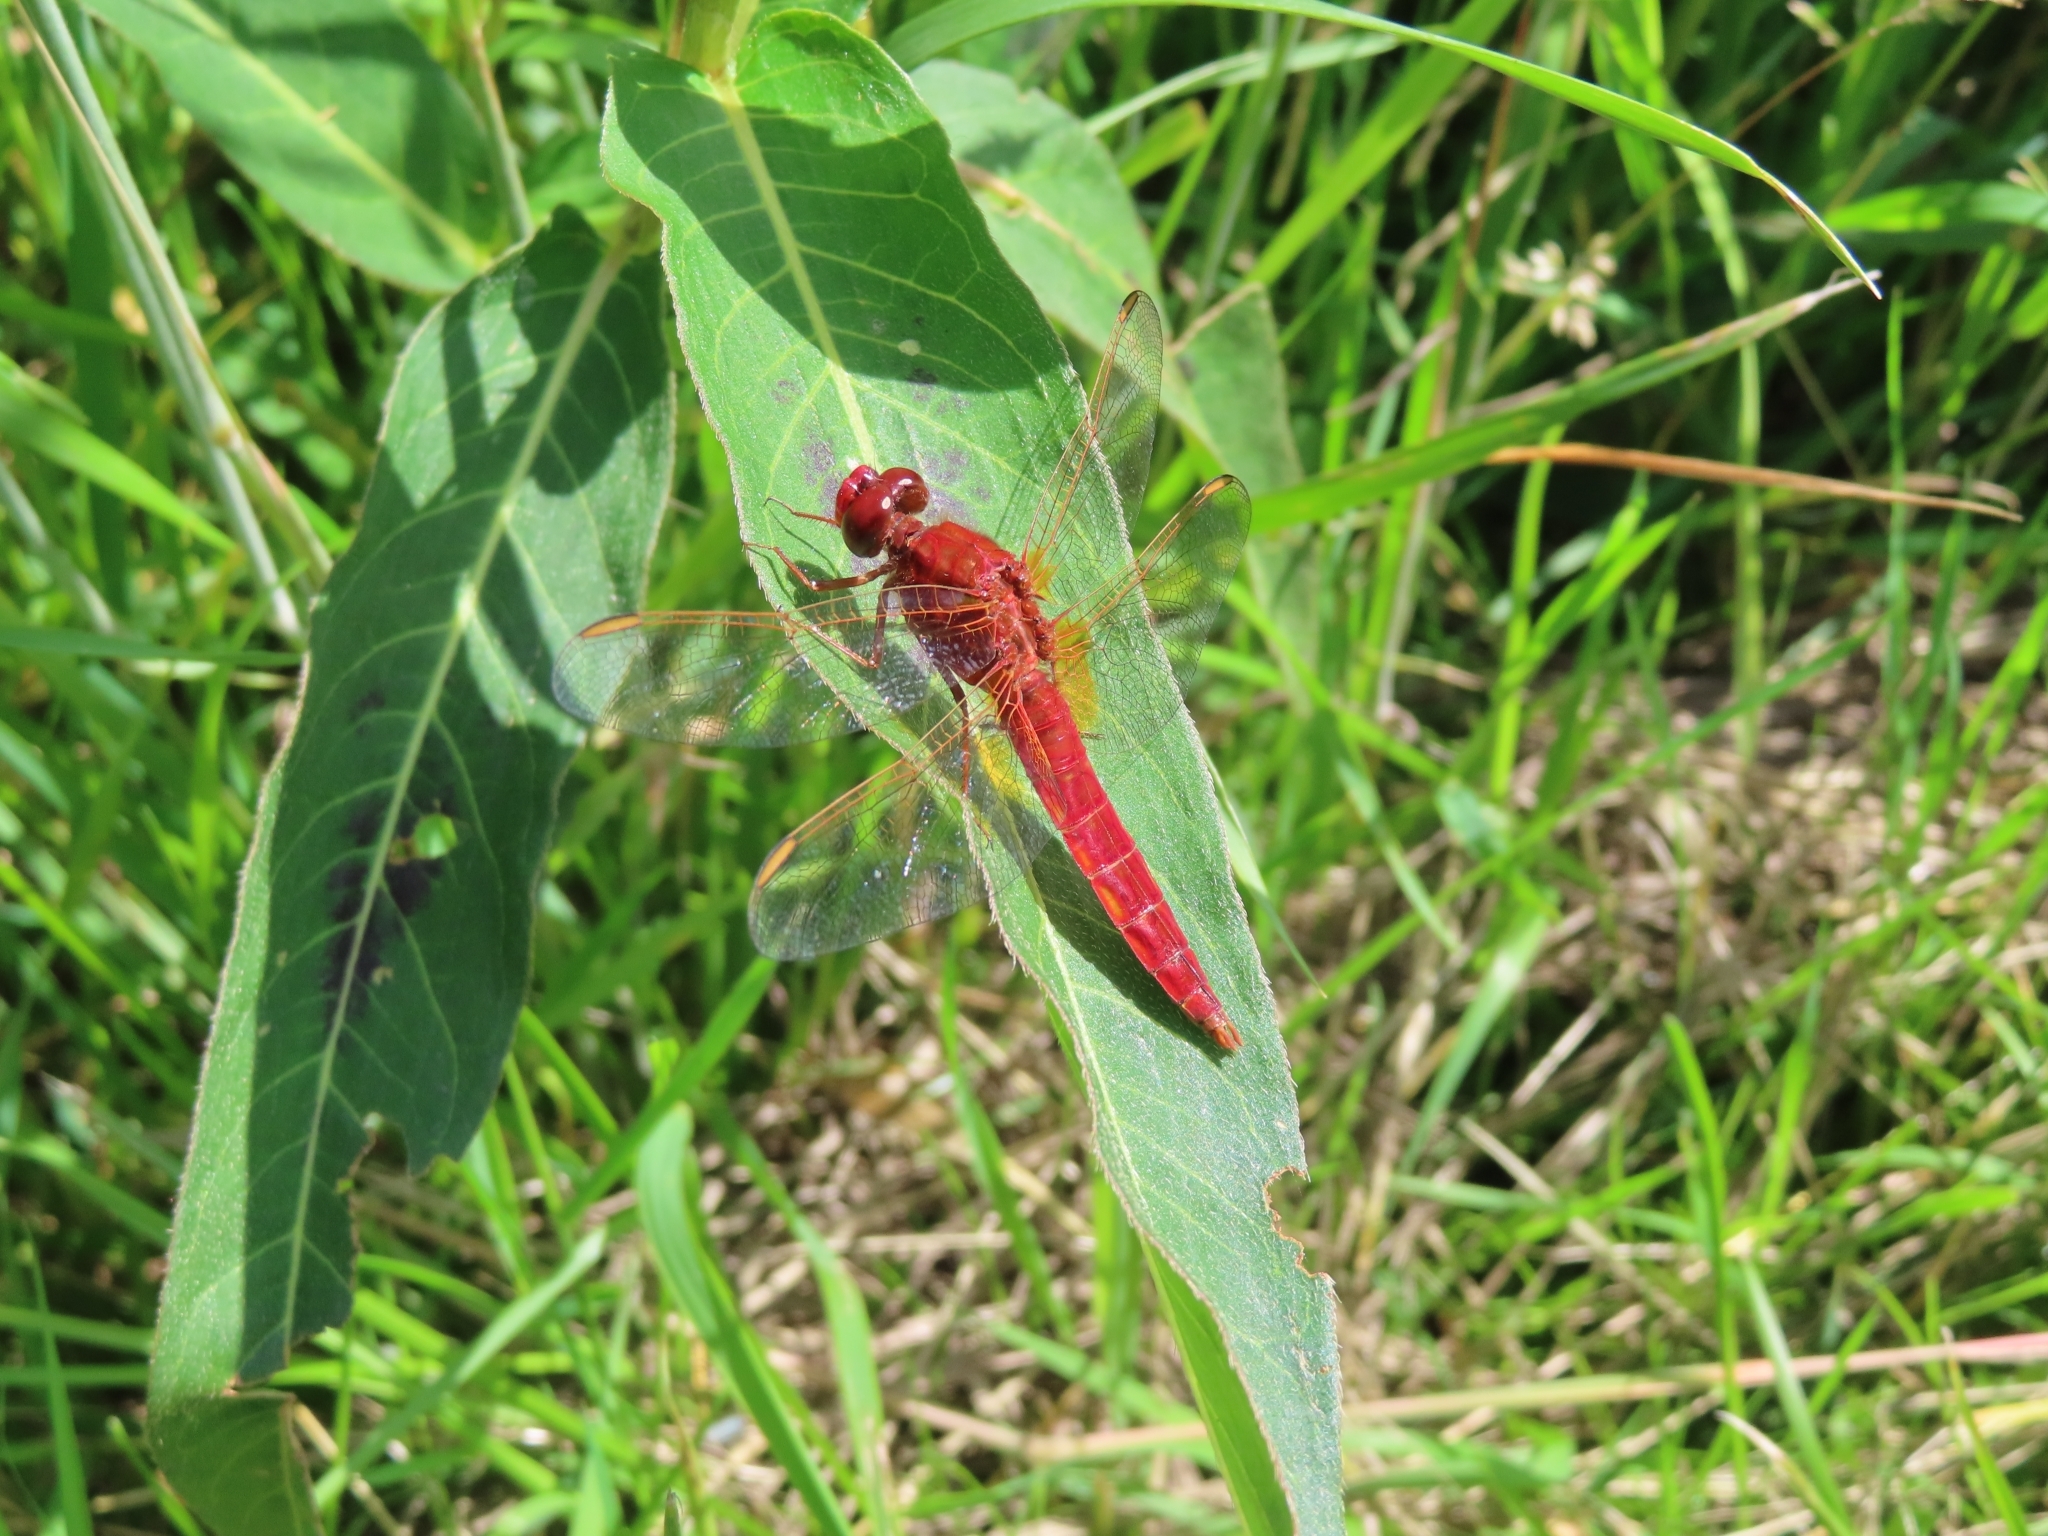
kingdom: Animalia
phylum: Arthropoda
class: Insecta
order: Odonata
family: Libellulidae
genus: Crocothemis
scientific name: Crocothemis erythraea
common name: Scarlet dragonfly
